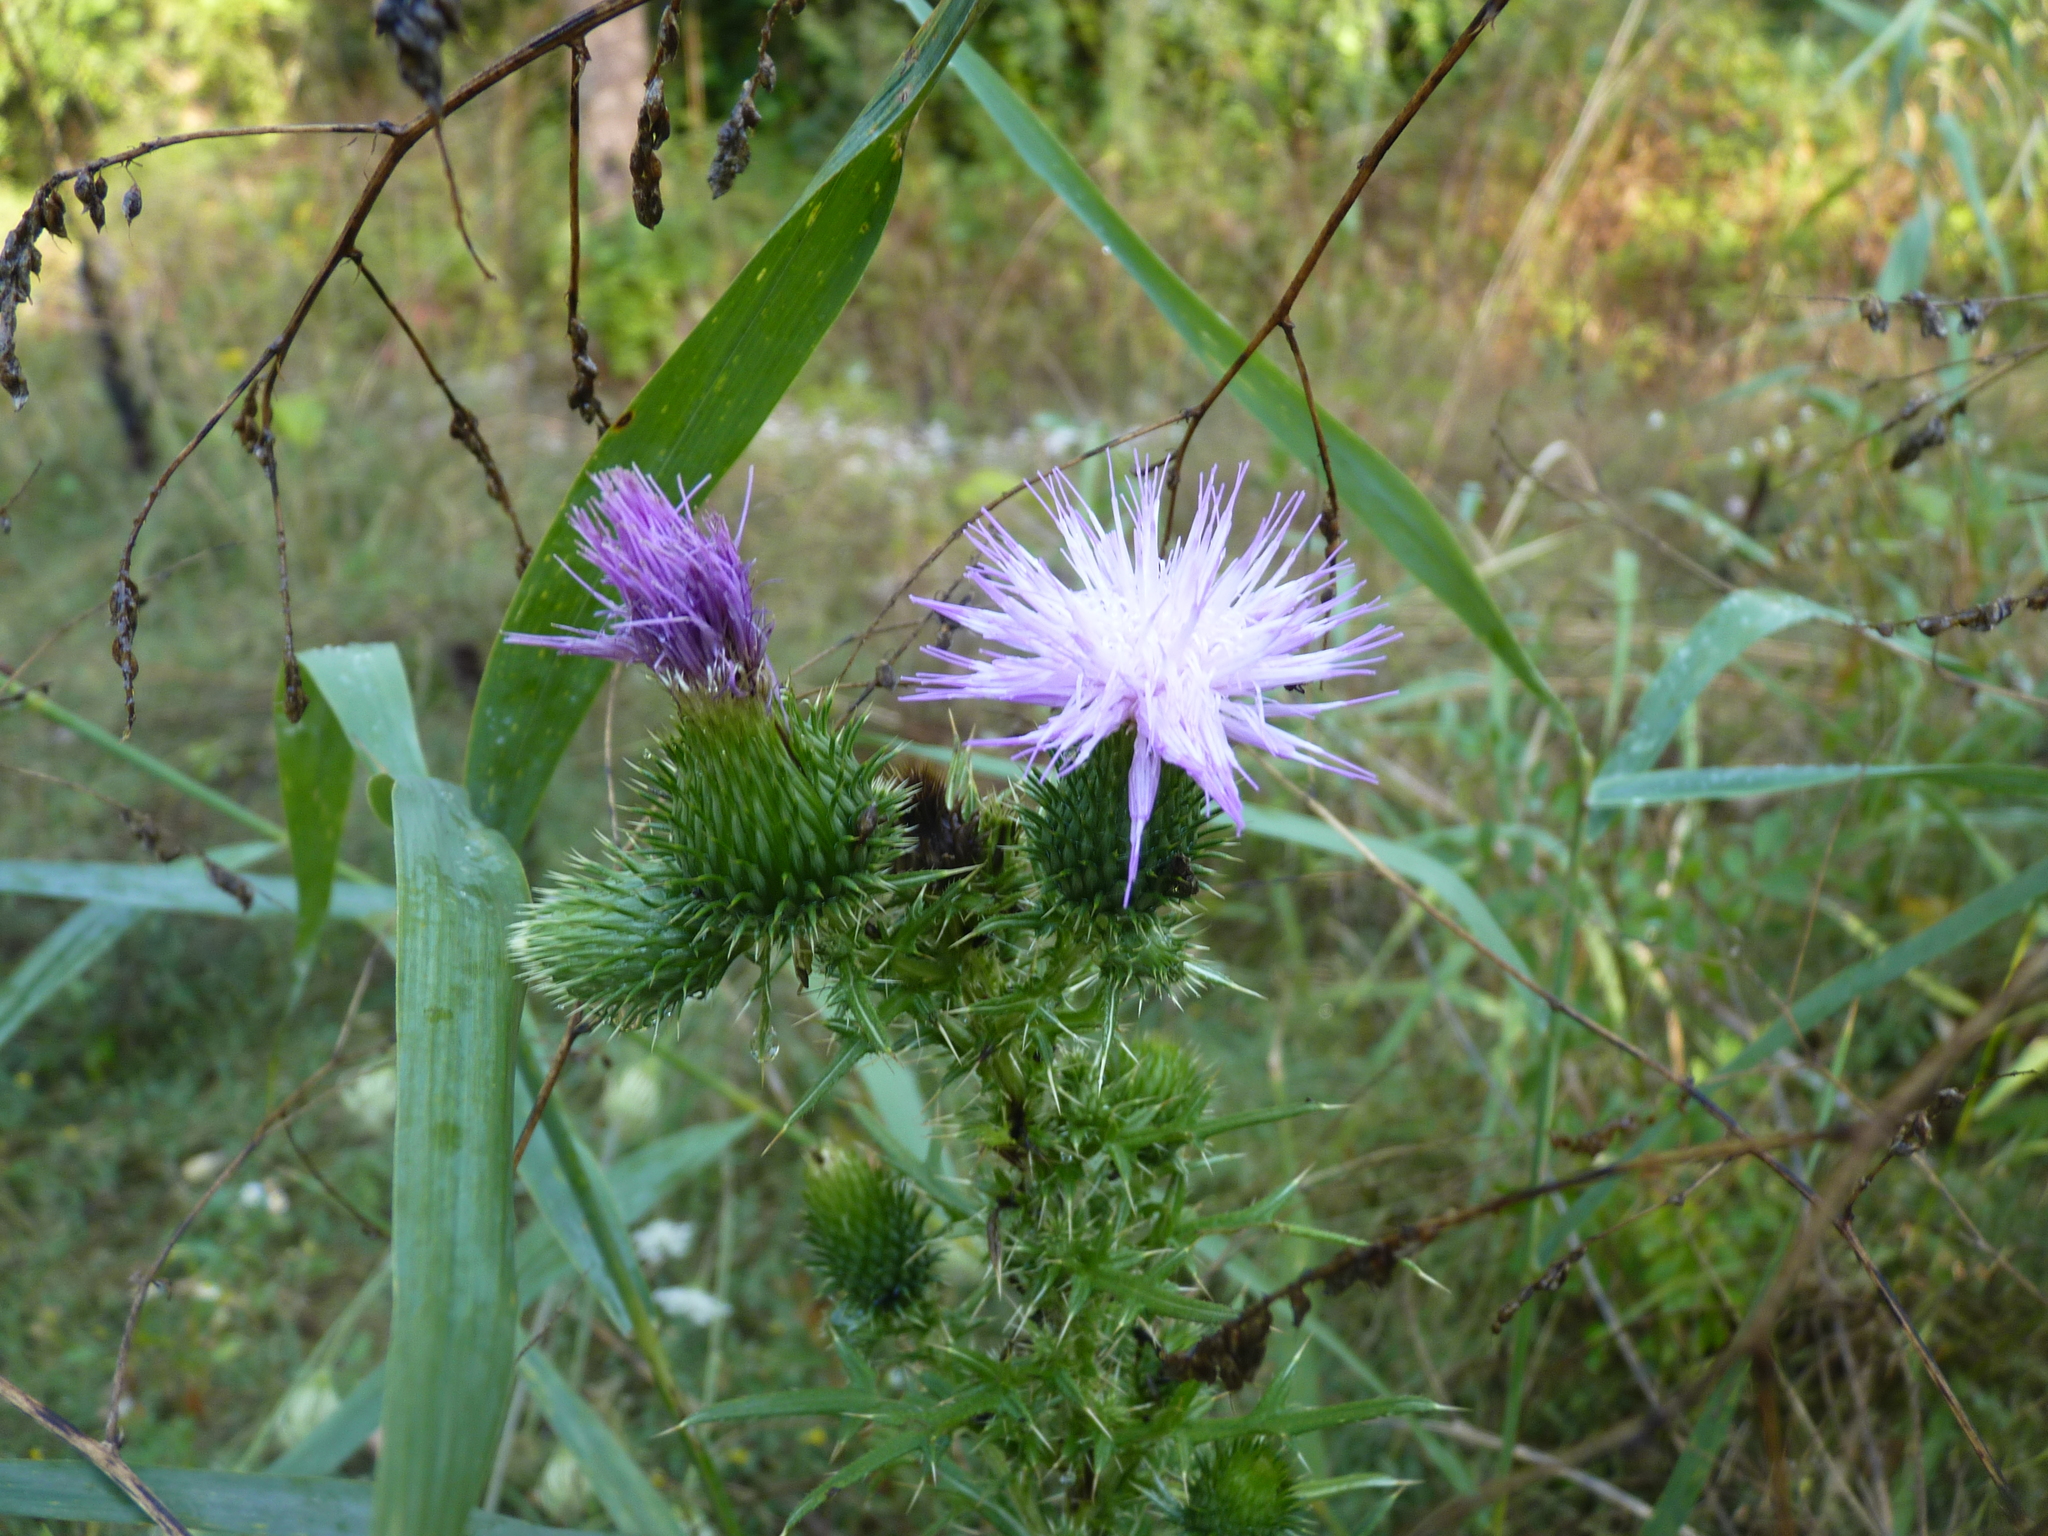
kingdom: Plantae
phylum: Tracheophyta
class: Magnoliopsida
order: Asterales
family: Asteraceae
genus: Cirsium
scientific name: Cirsium vulgare
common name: Bull thistle
